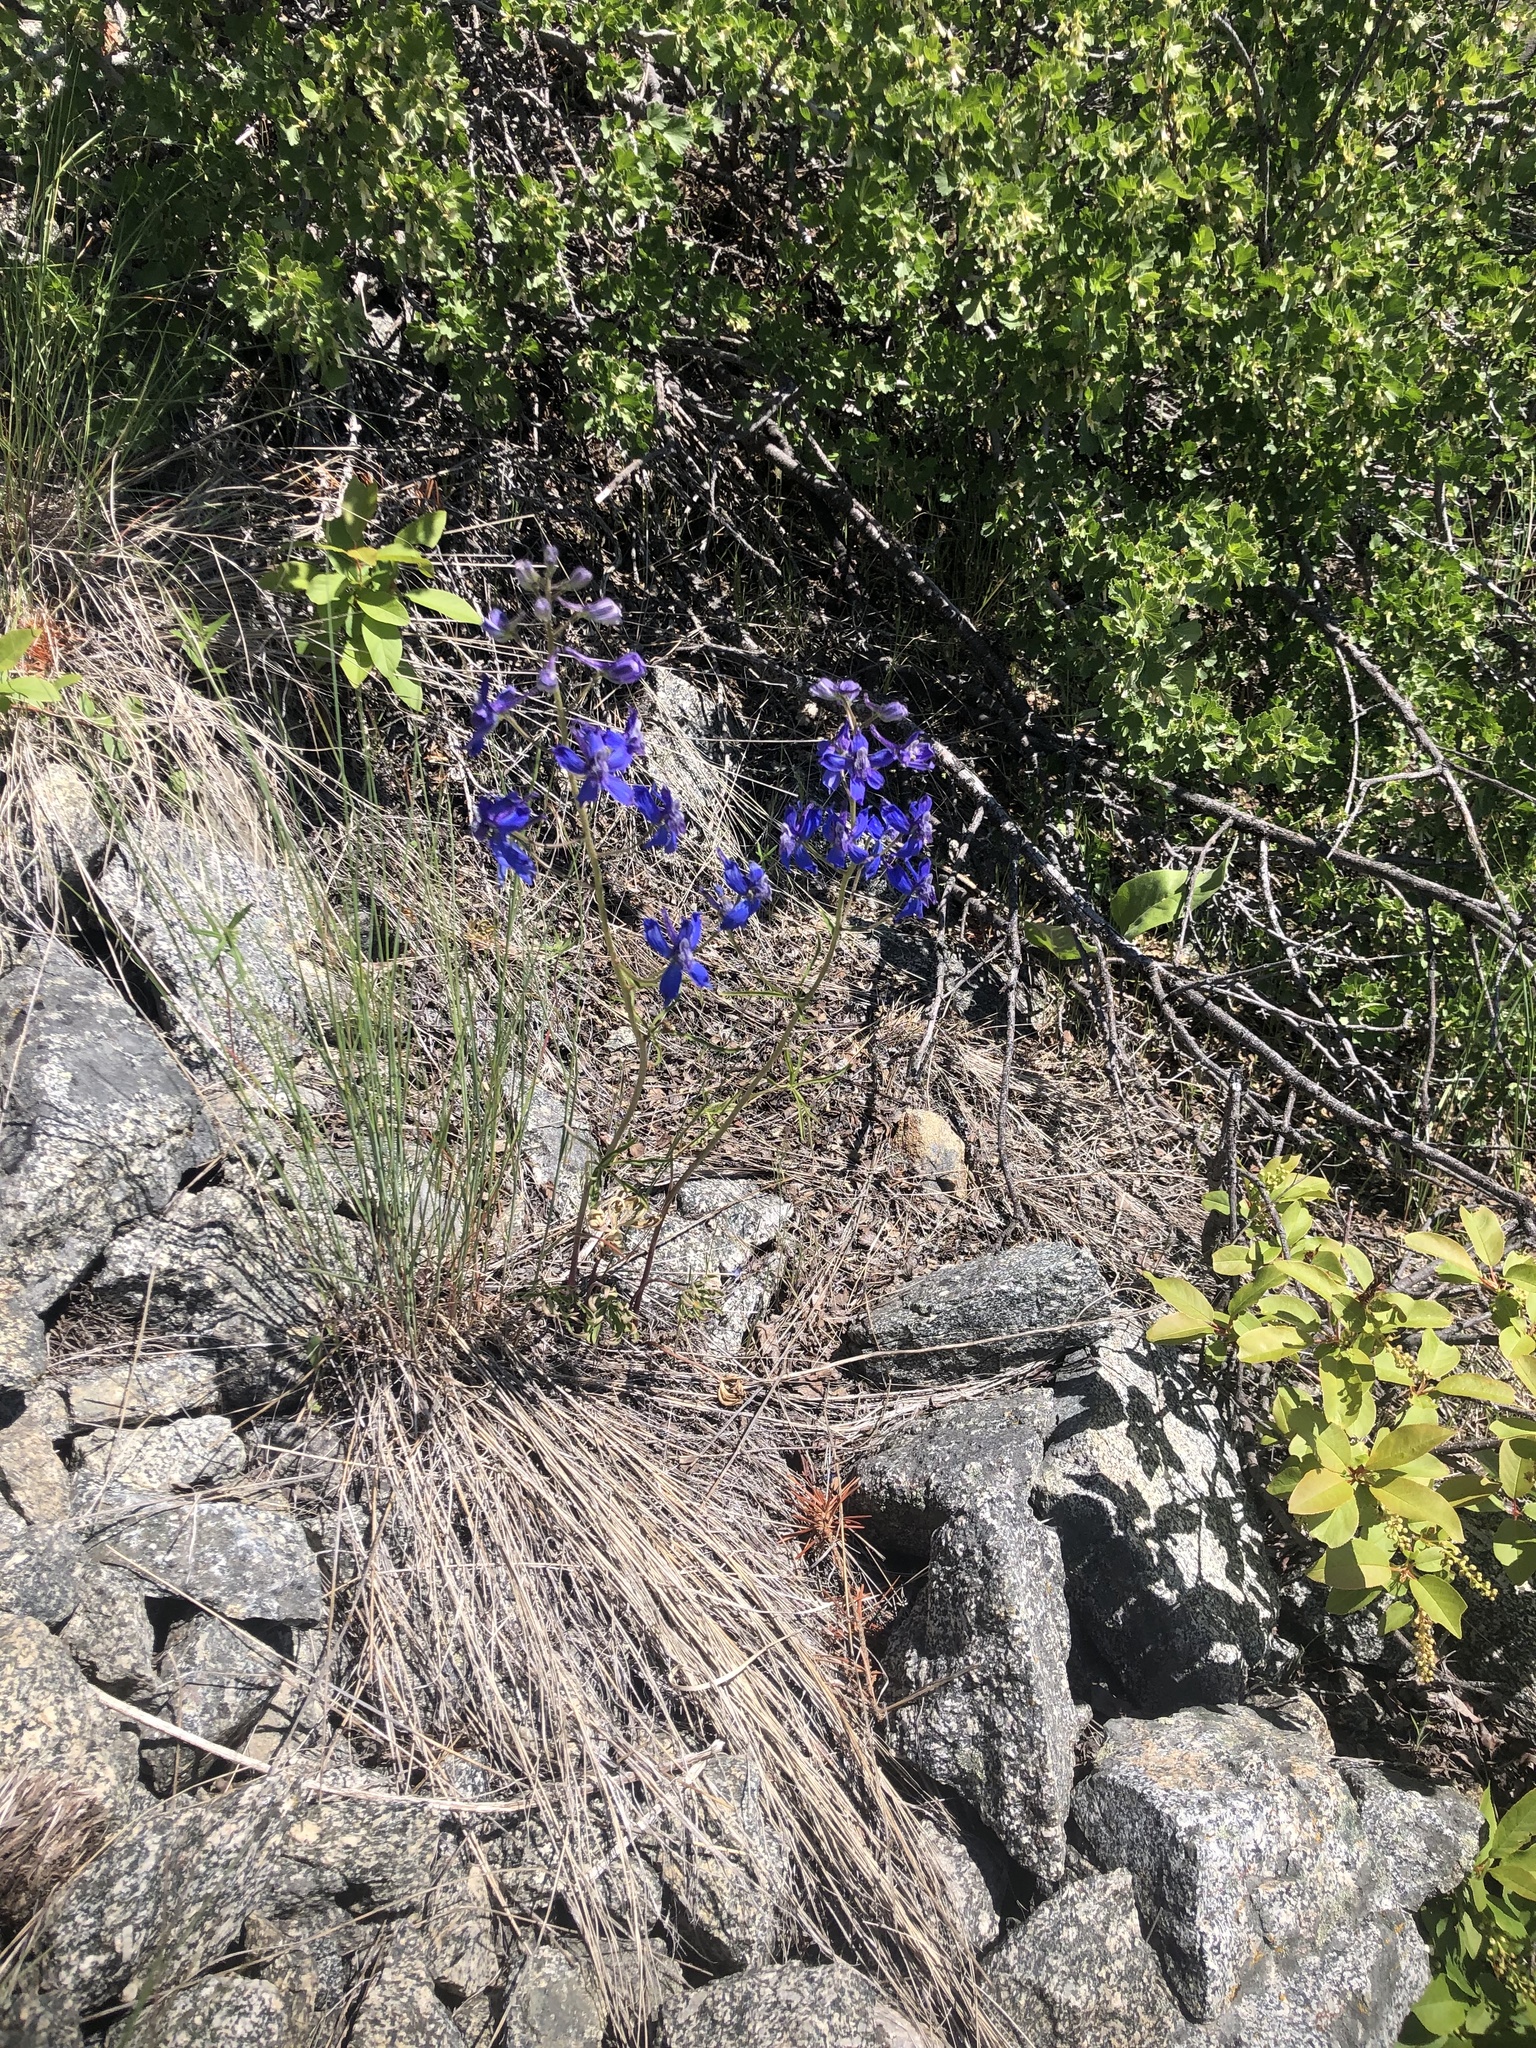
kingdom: Plantae
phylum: Tracheophyta
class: Magnoliopsida
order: Ranunculales
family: Ranunculaceae
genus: Delphinium
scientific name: Delphinium nuttallianum
